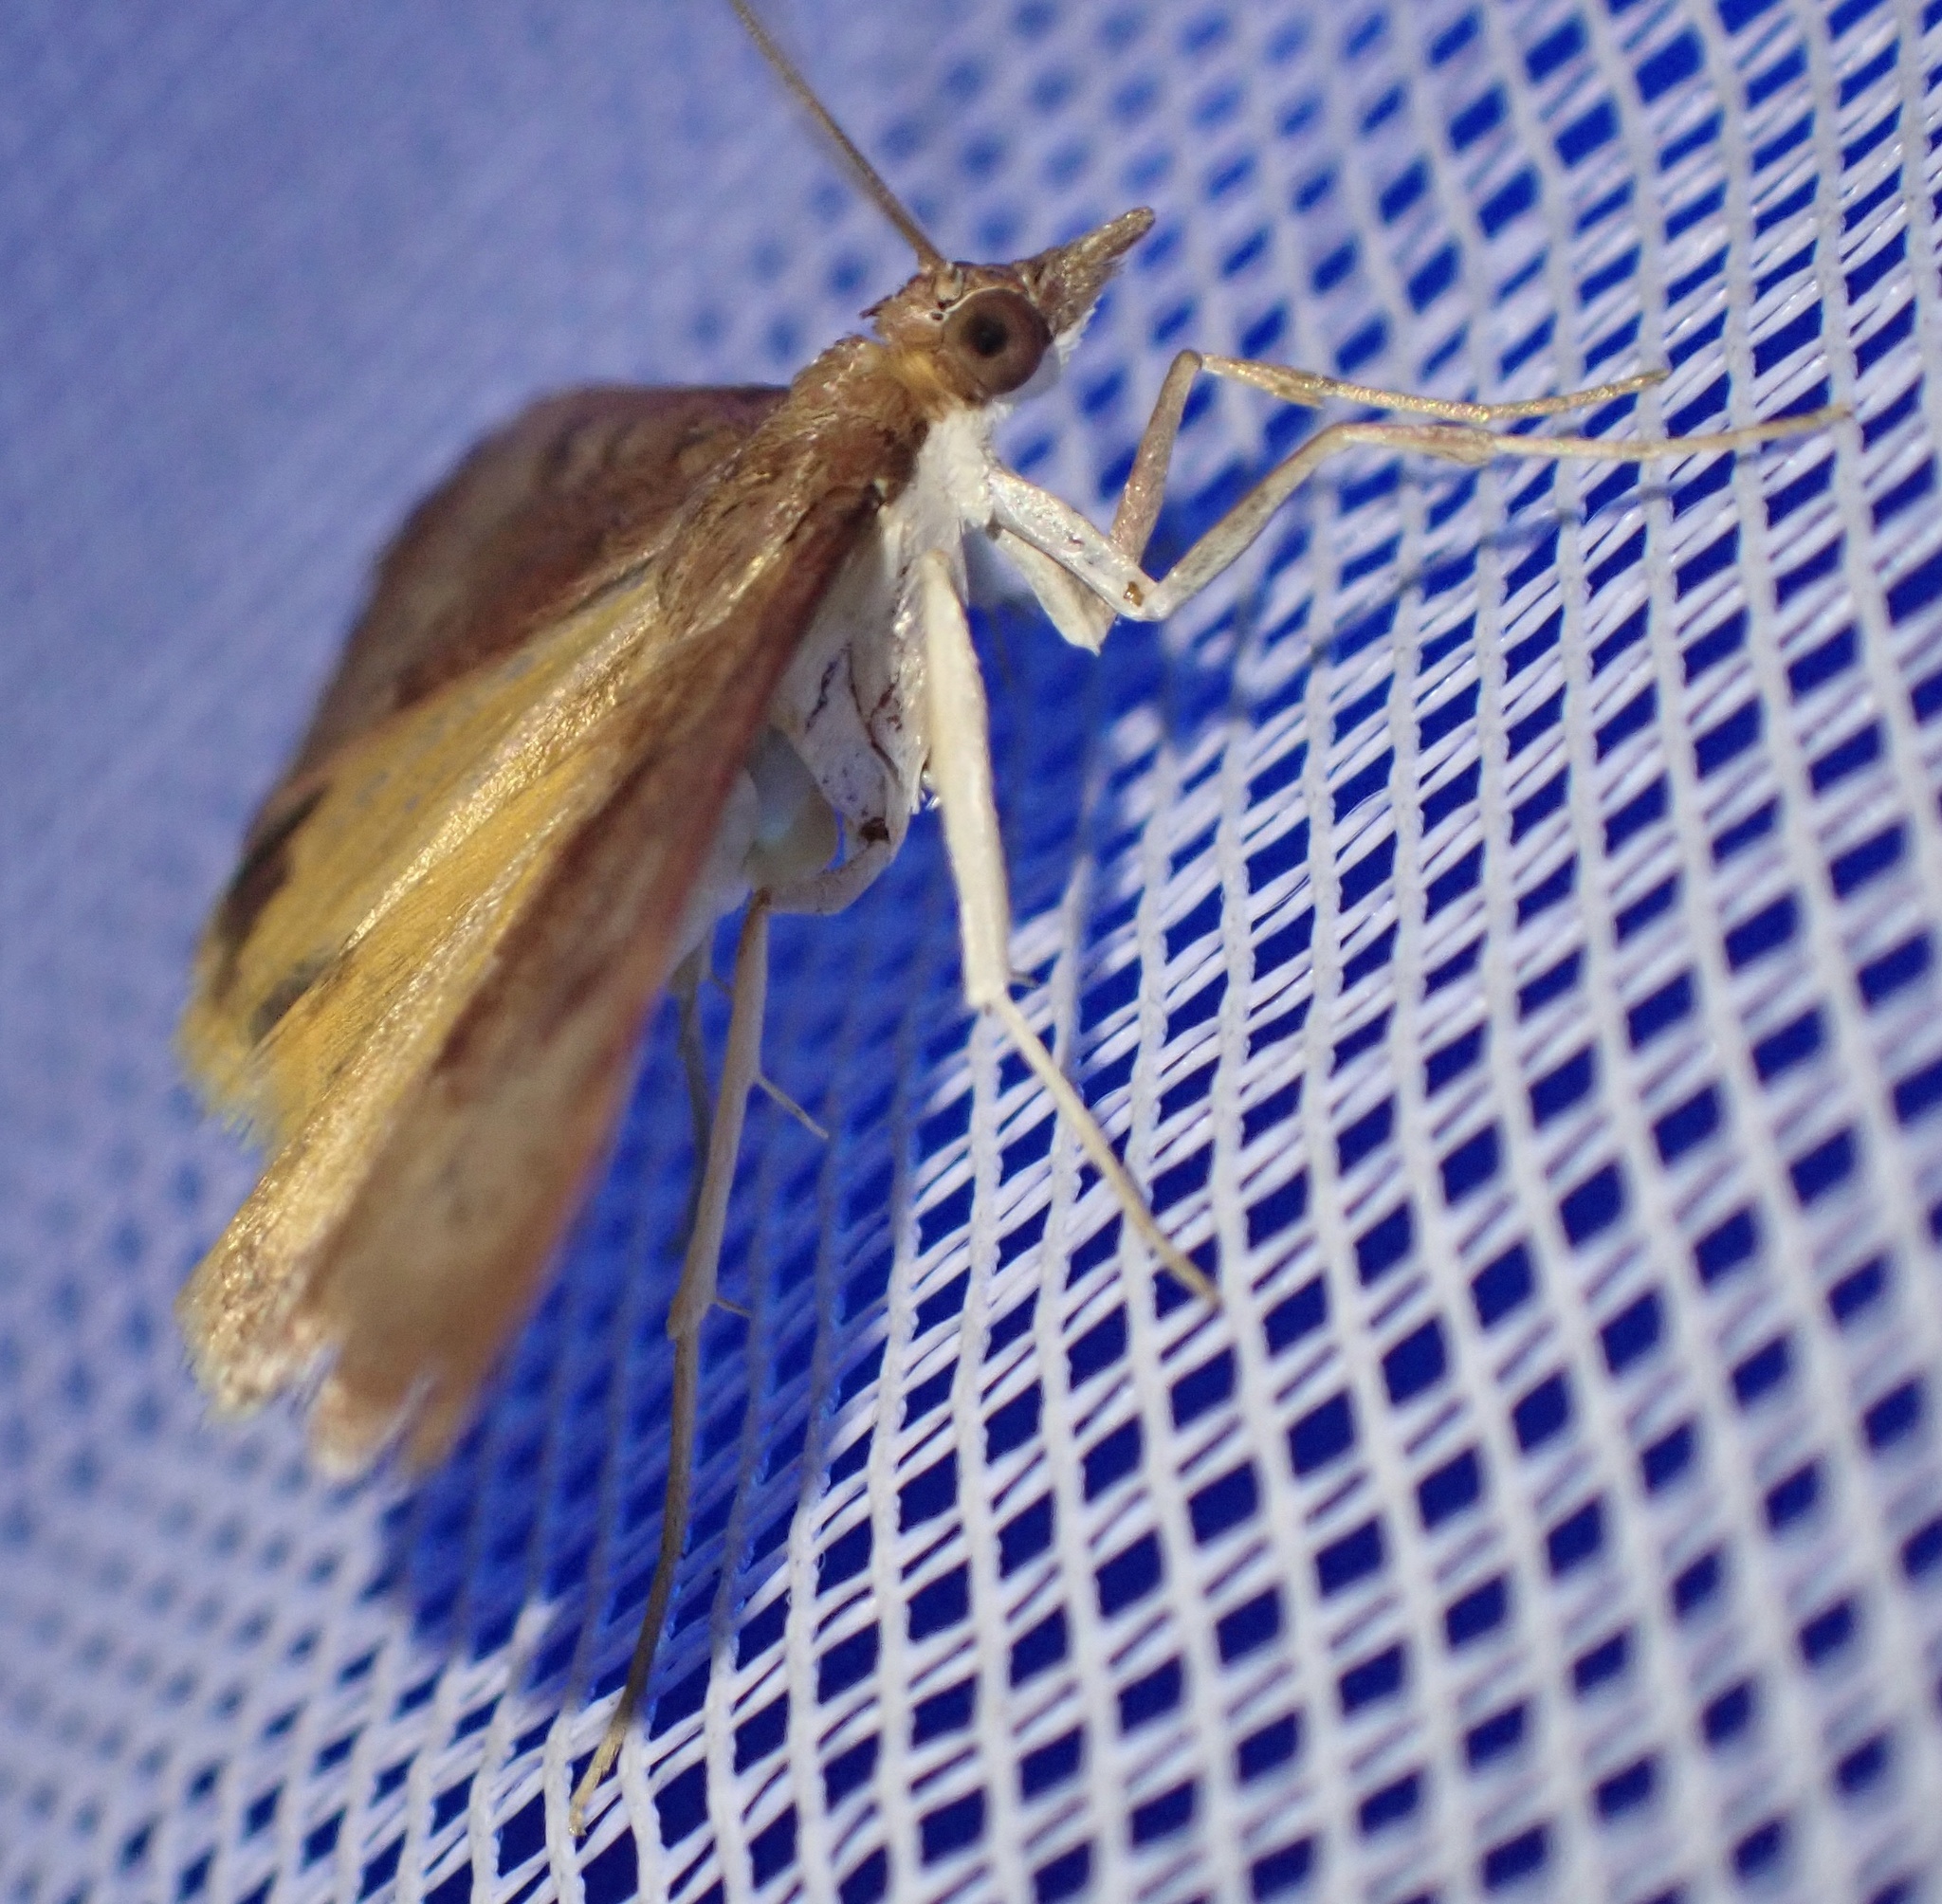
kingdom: Animalia
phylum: Arthropoda
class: Insecta
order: Lepidoptera
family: Crambidae
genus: Uresiphita
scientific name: Uresiphita gilvata
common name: Yellow-underwing pearl
